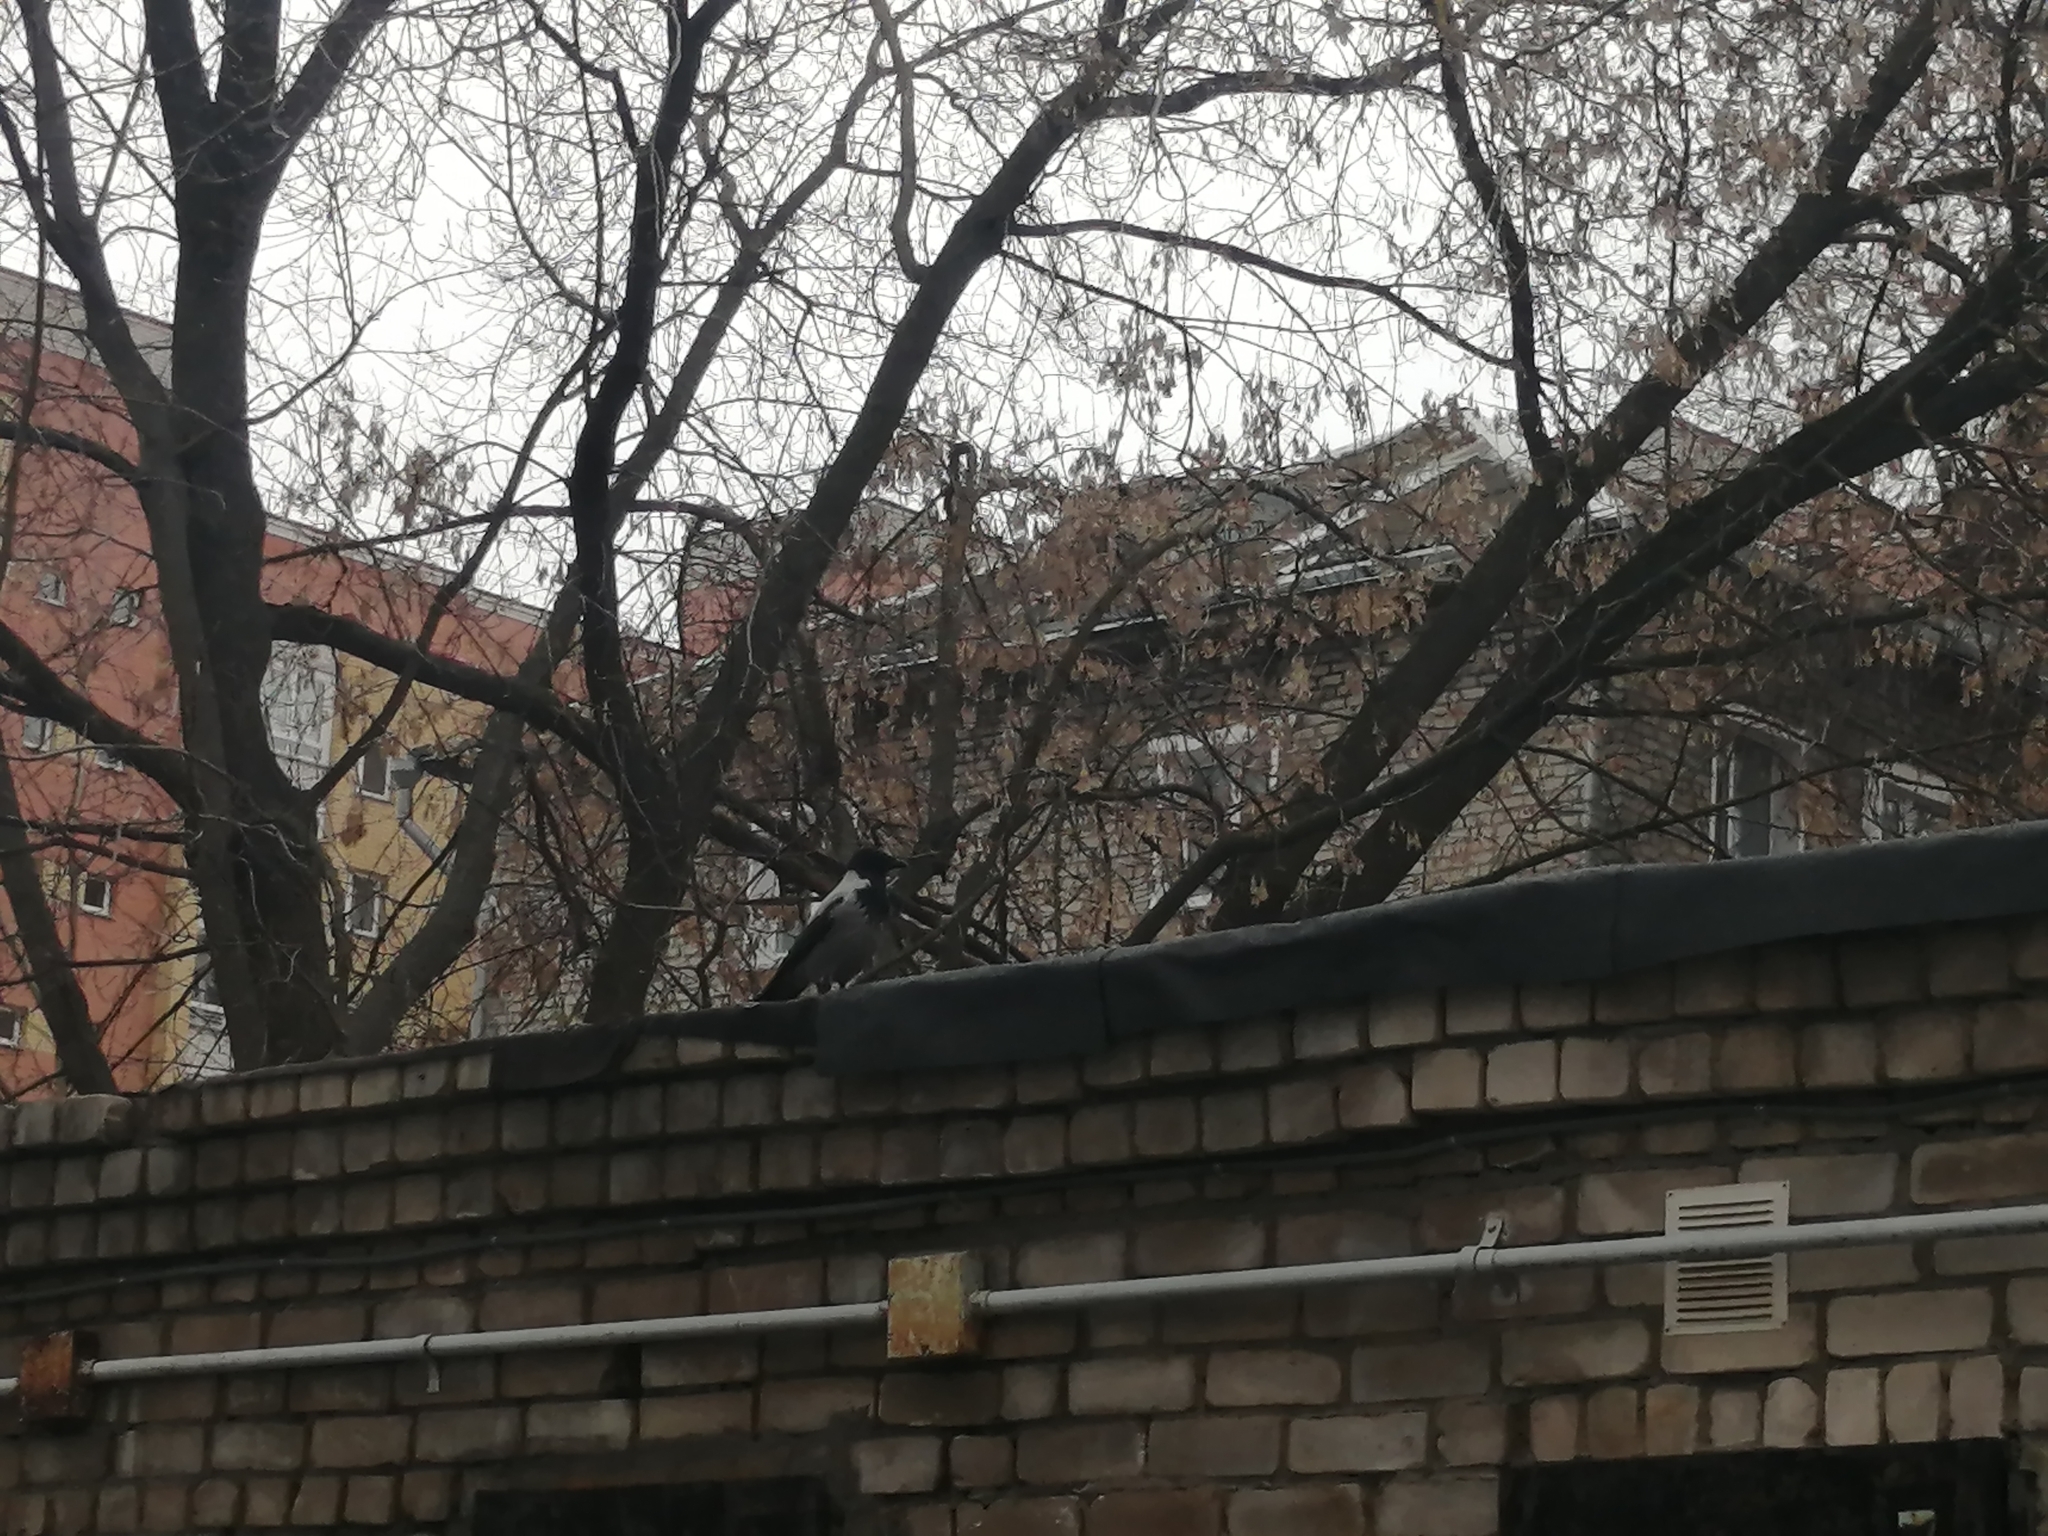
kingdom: Animalia
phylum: Chordata
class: Aves
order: Passeriformes
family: Corvidae
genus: Corvus
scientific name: Corvus cornix
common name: Hooded crow
